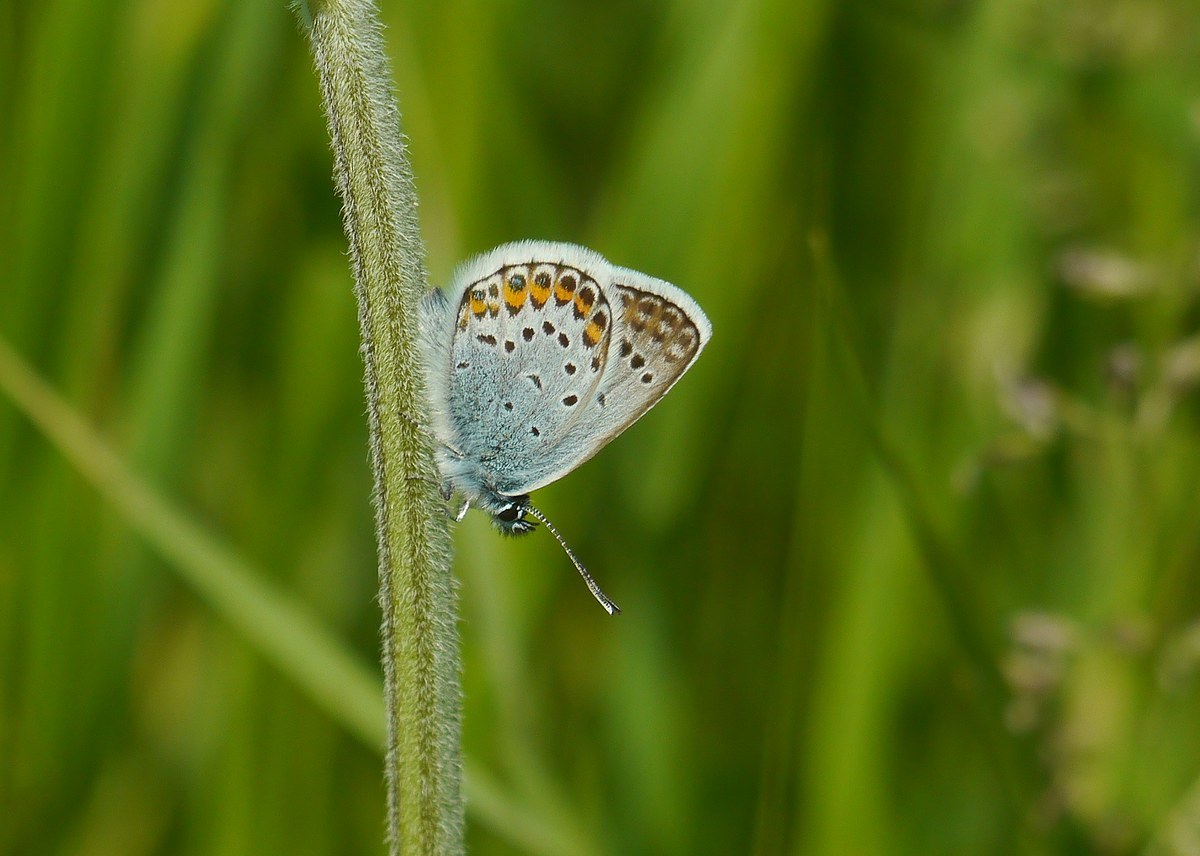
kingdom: Animalia
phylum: Arthropoda
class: Insecta
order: Lepidoptera
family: Lycaenidae
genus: Plebejus
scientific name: Plebejus argus
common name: Silver-studded blue
